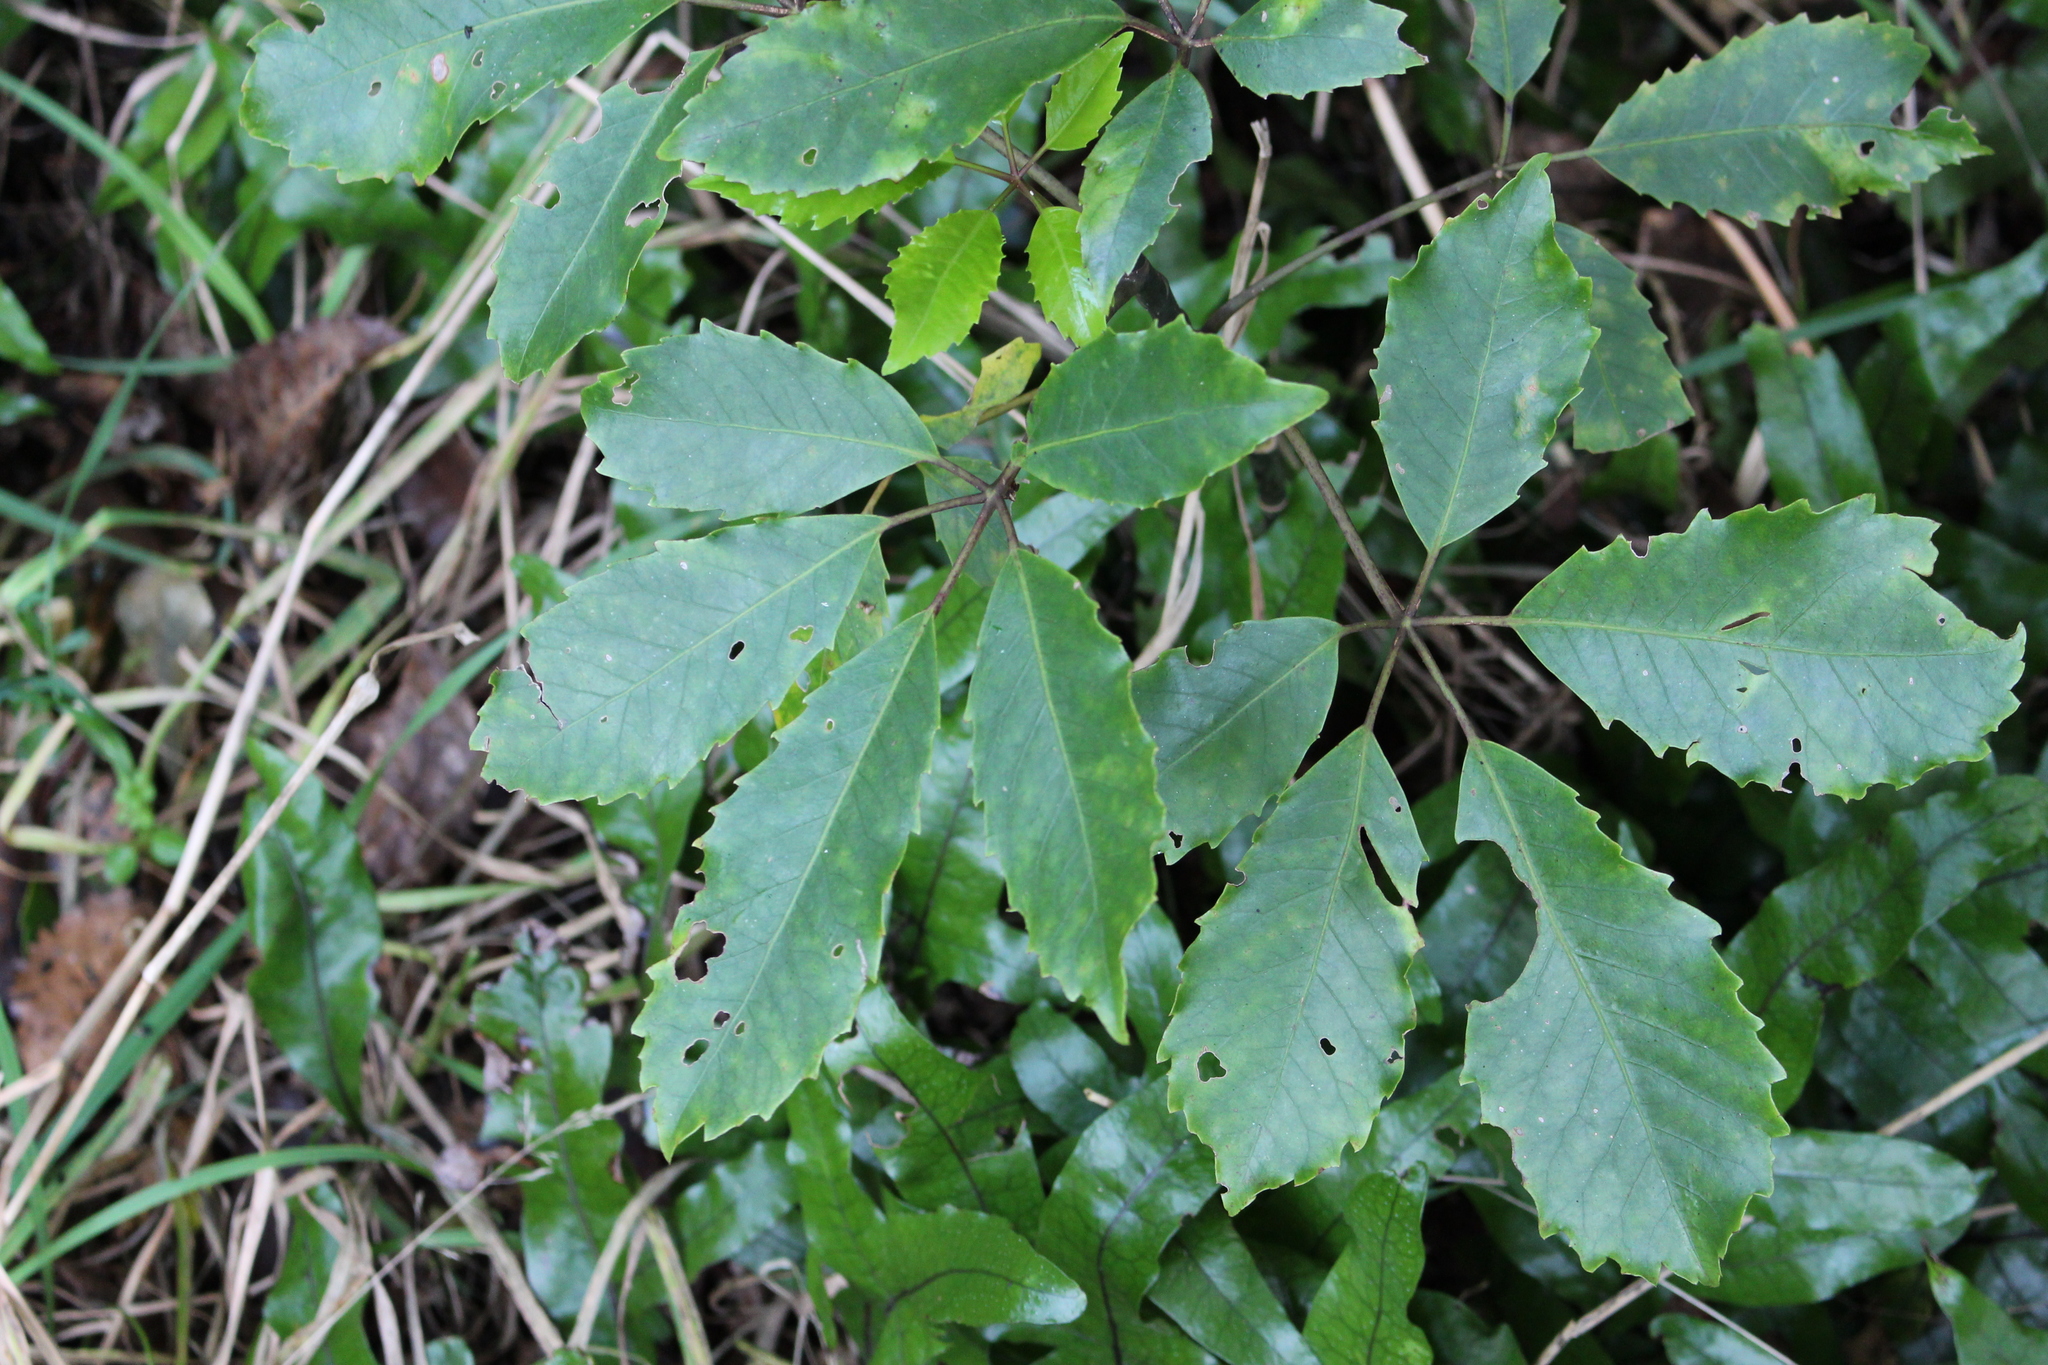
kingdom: Plantae
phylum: Tracheophyta
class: Magnoliopsida
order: Apiales
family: Araliaceae
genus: Neopanax
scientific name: Neopanax arboreus
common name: Five-fingers
